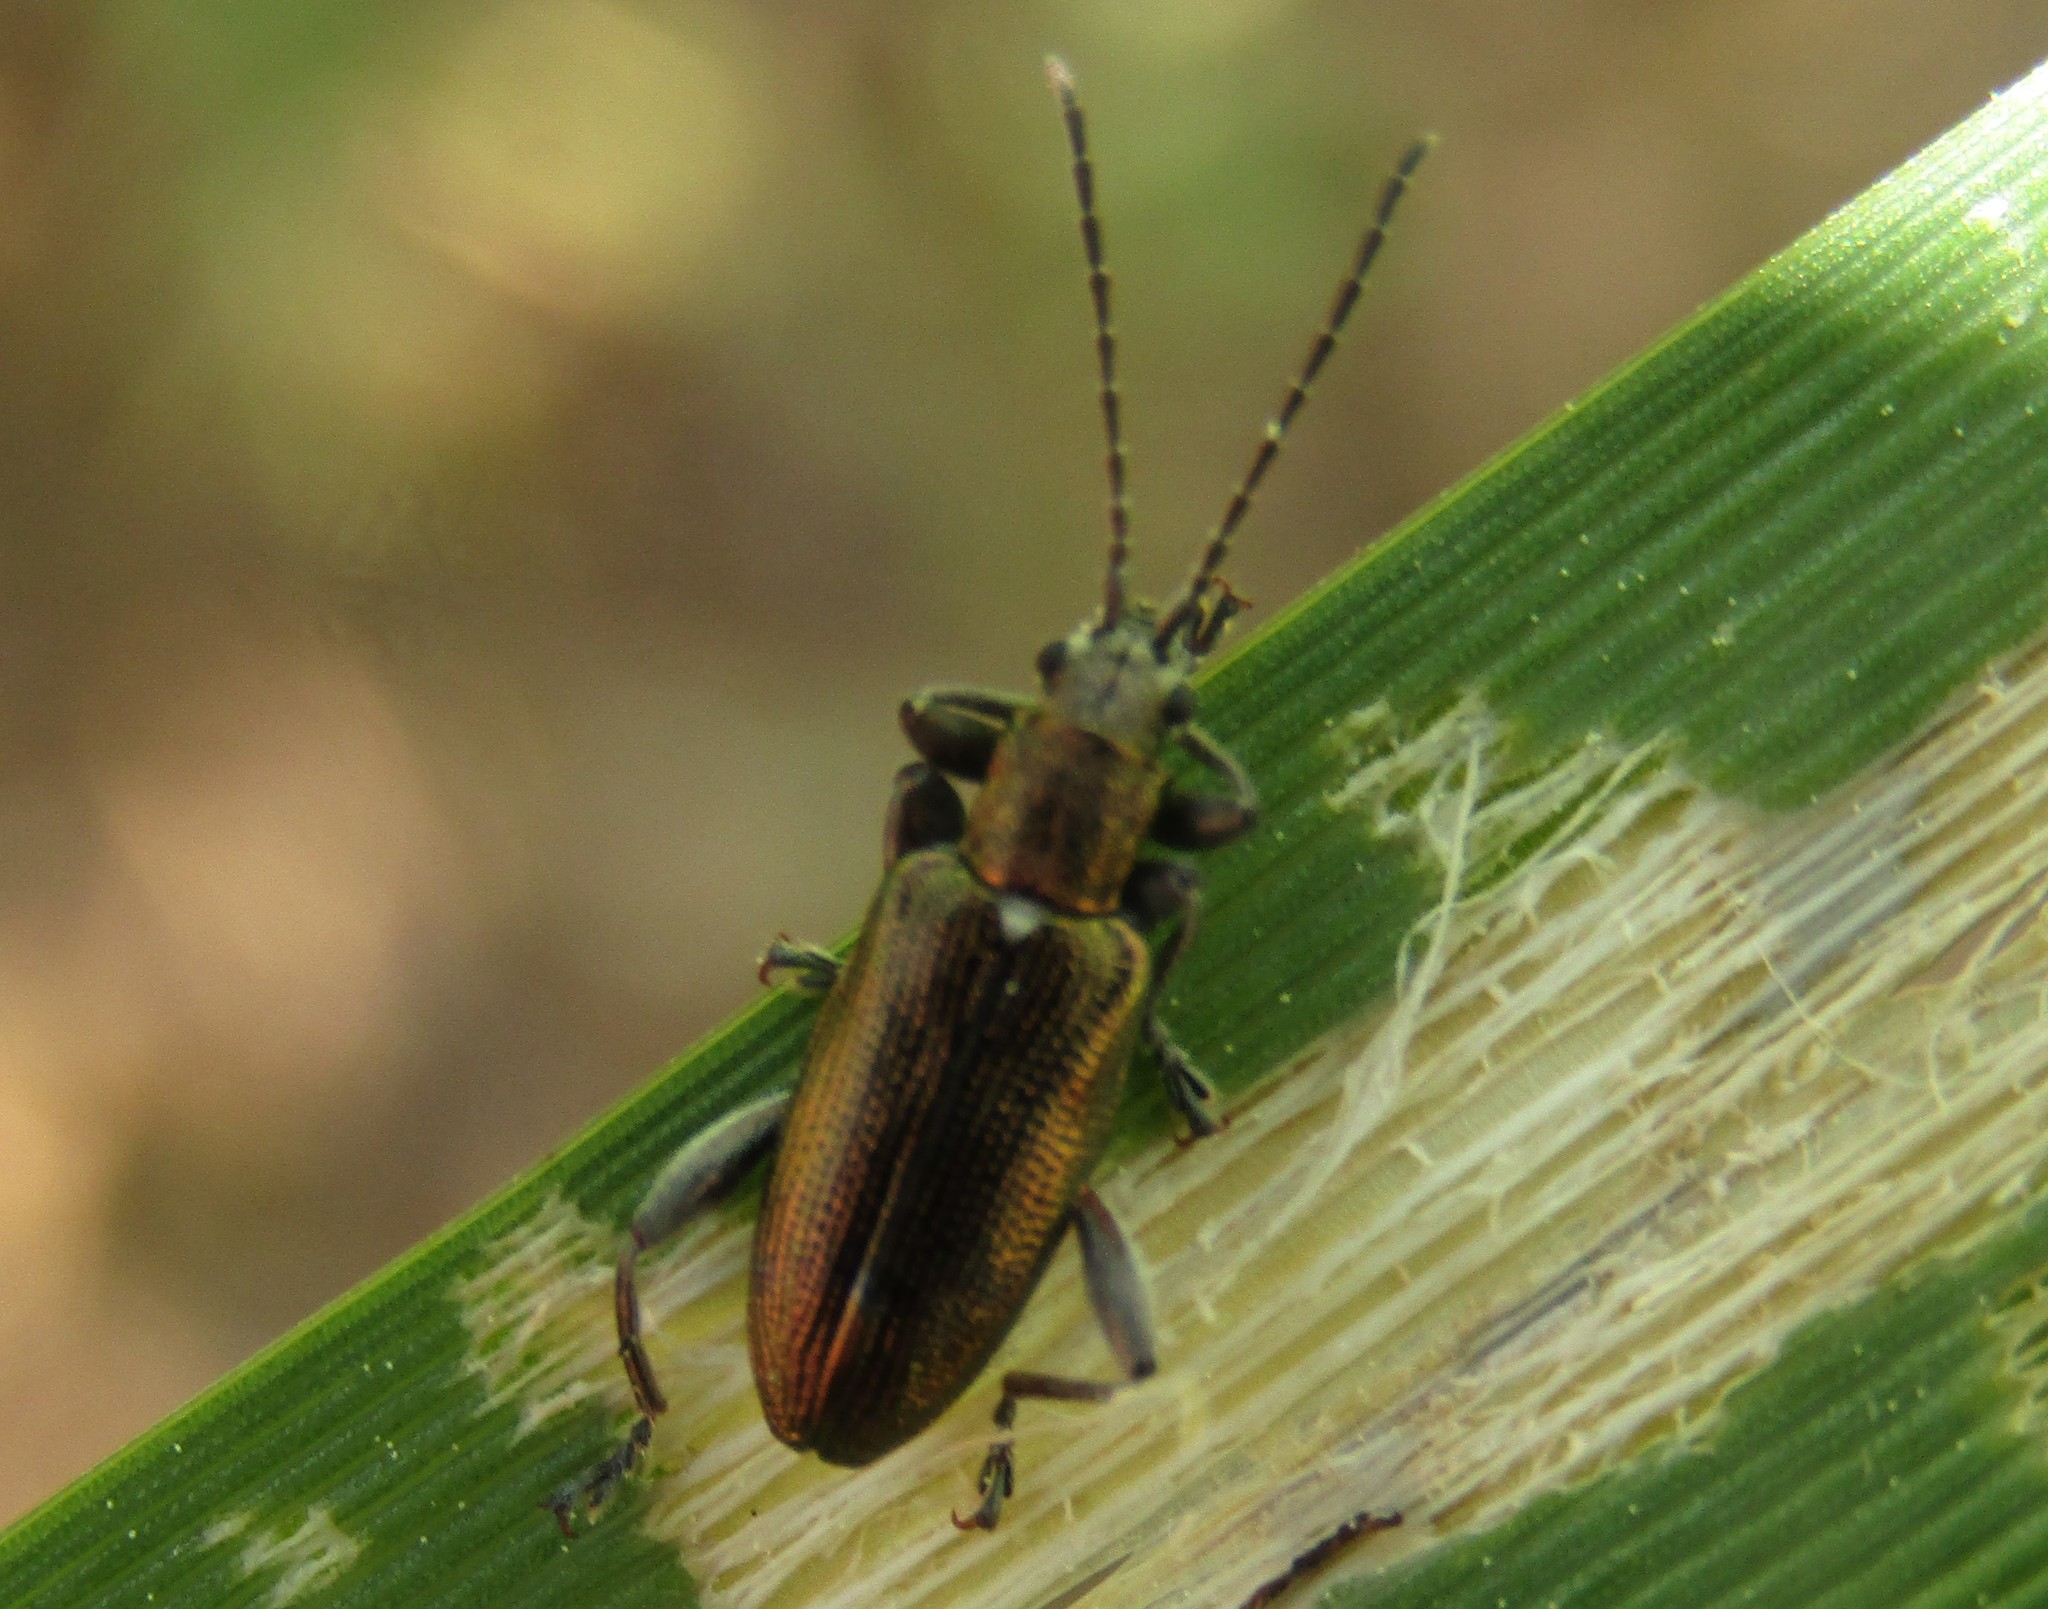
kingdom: Animalia
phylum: Arthropoda
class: Insecta
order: Coleoptera
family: Chrysomelidae
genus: Donacia
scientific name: Donacia semicuprea
